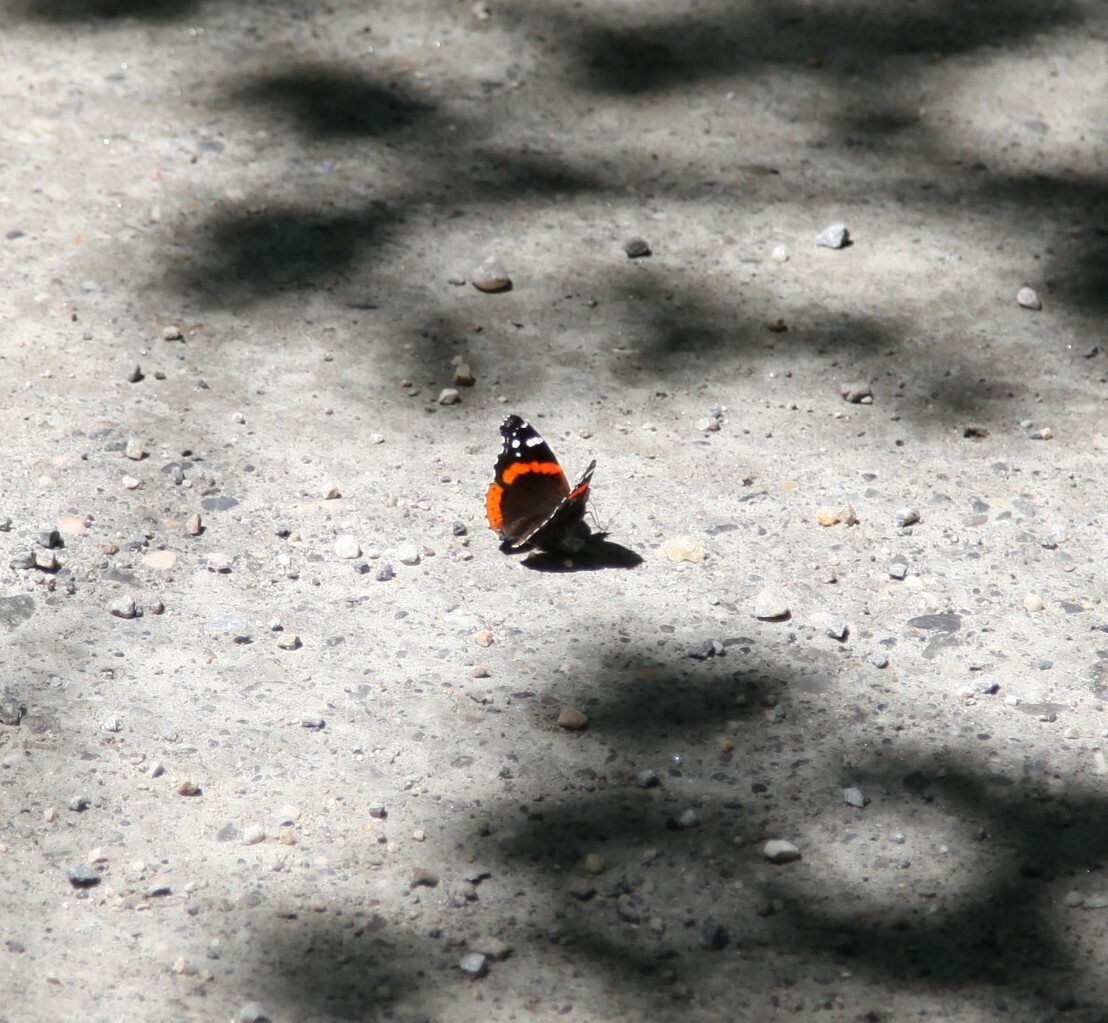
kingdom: Animalia
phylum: Arthropoda
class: Insecta
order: Lepidoptera
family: Nymphalidae
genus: Vanessa
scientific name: Vanessa atalanta
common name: Red admiral
